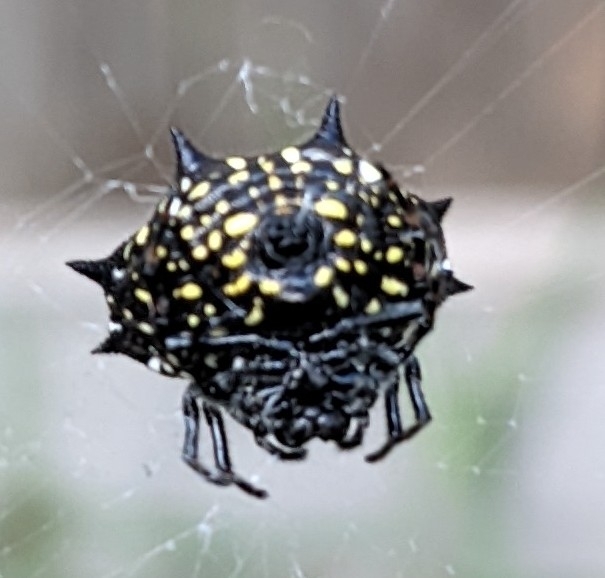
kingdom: Animalia
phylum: Arthropoda
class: Arachnida
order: Araneae
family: Araneidae
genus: Gasteracantha
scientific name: Gasteracantha cancriformis
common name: Orb weavers
